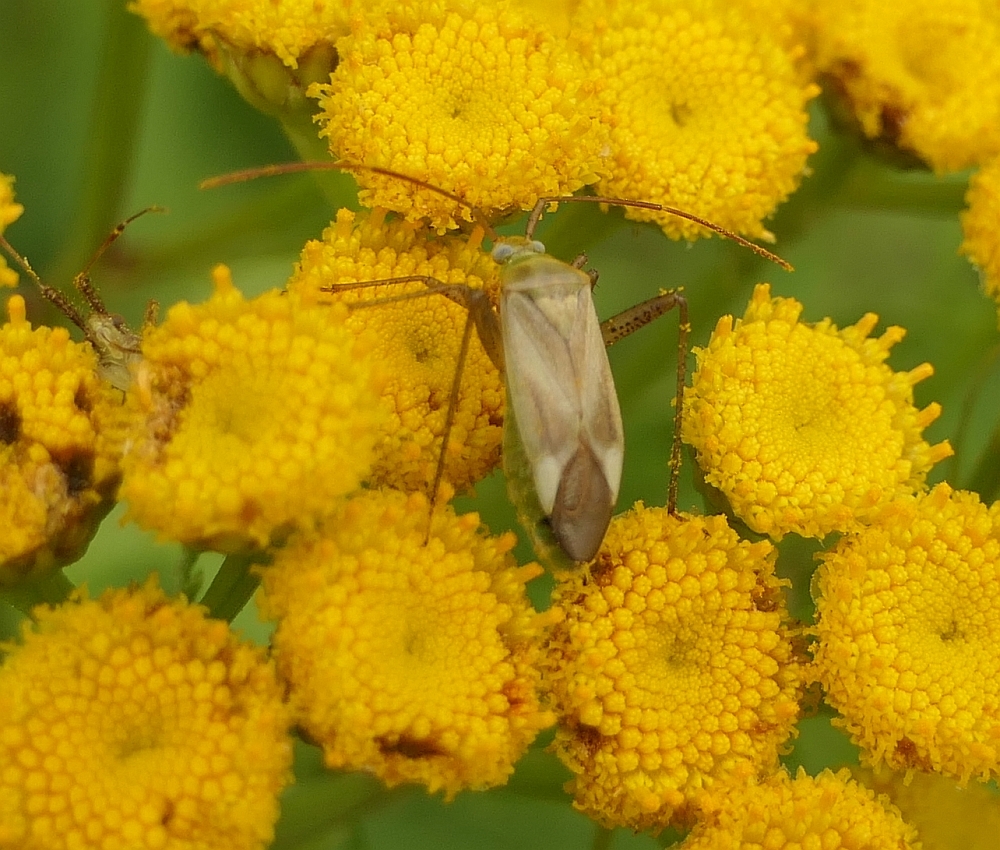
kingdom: Animalia
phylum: Arthropoda
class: Insecta
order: Hemiptera
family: Miridae
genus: Adelphocoris
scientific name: Adelphocoris lineolatus
